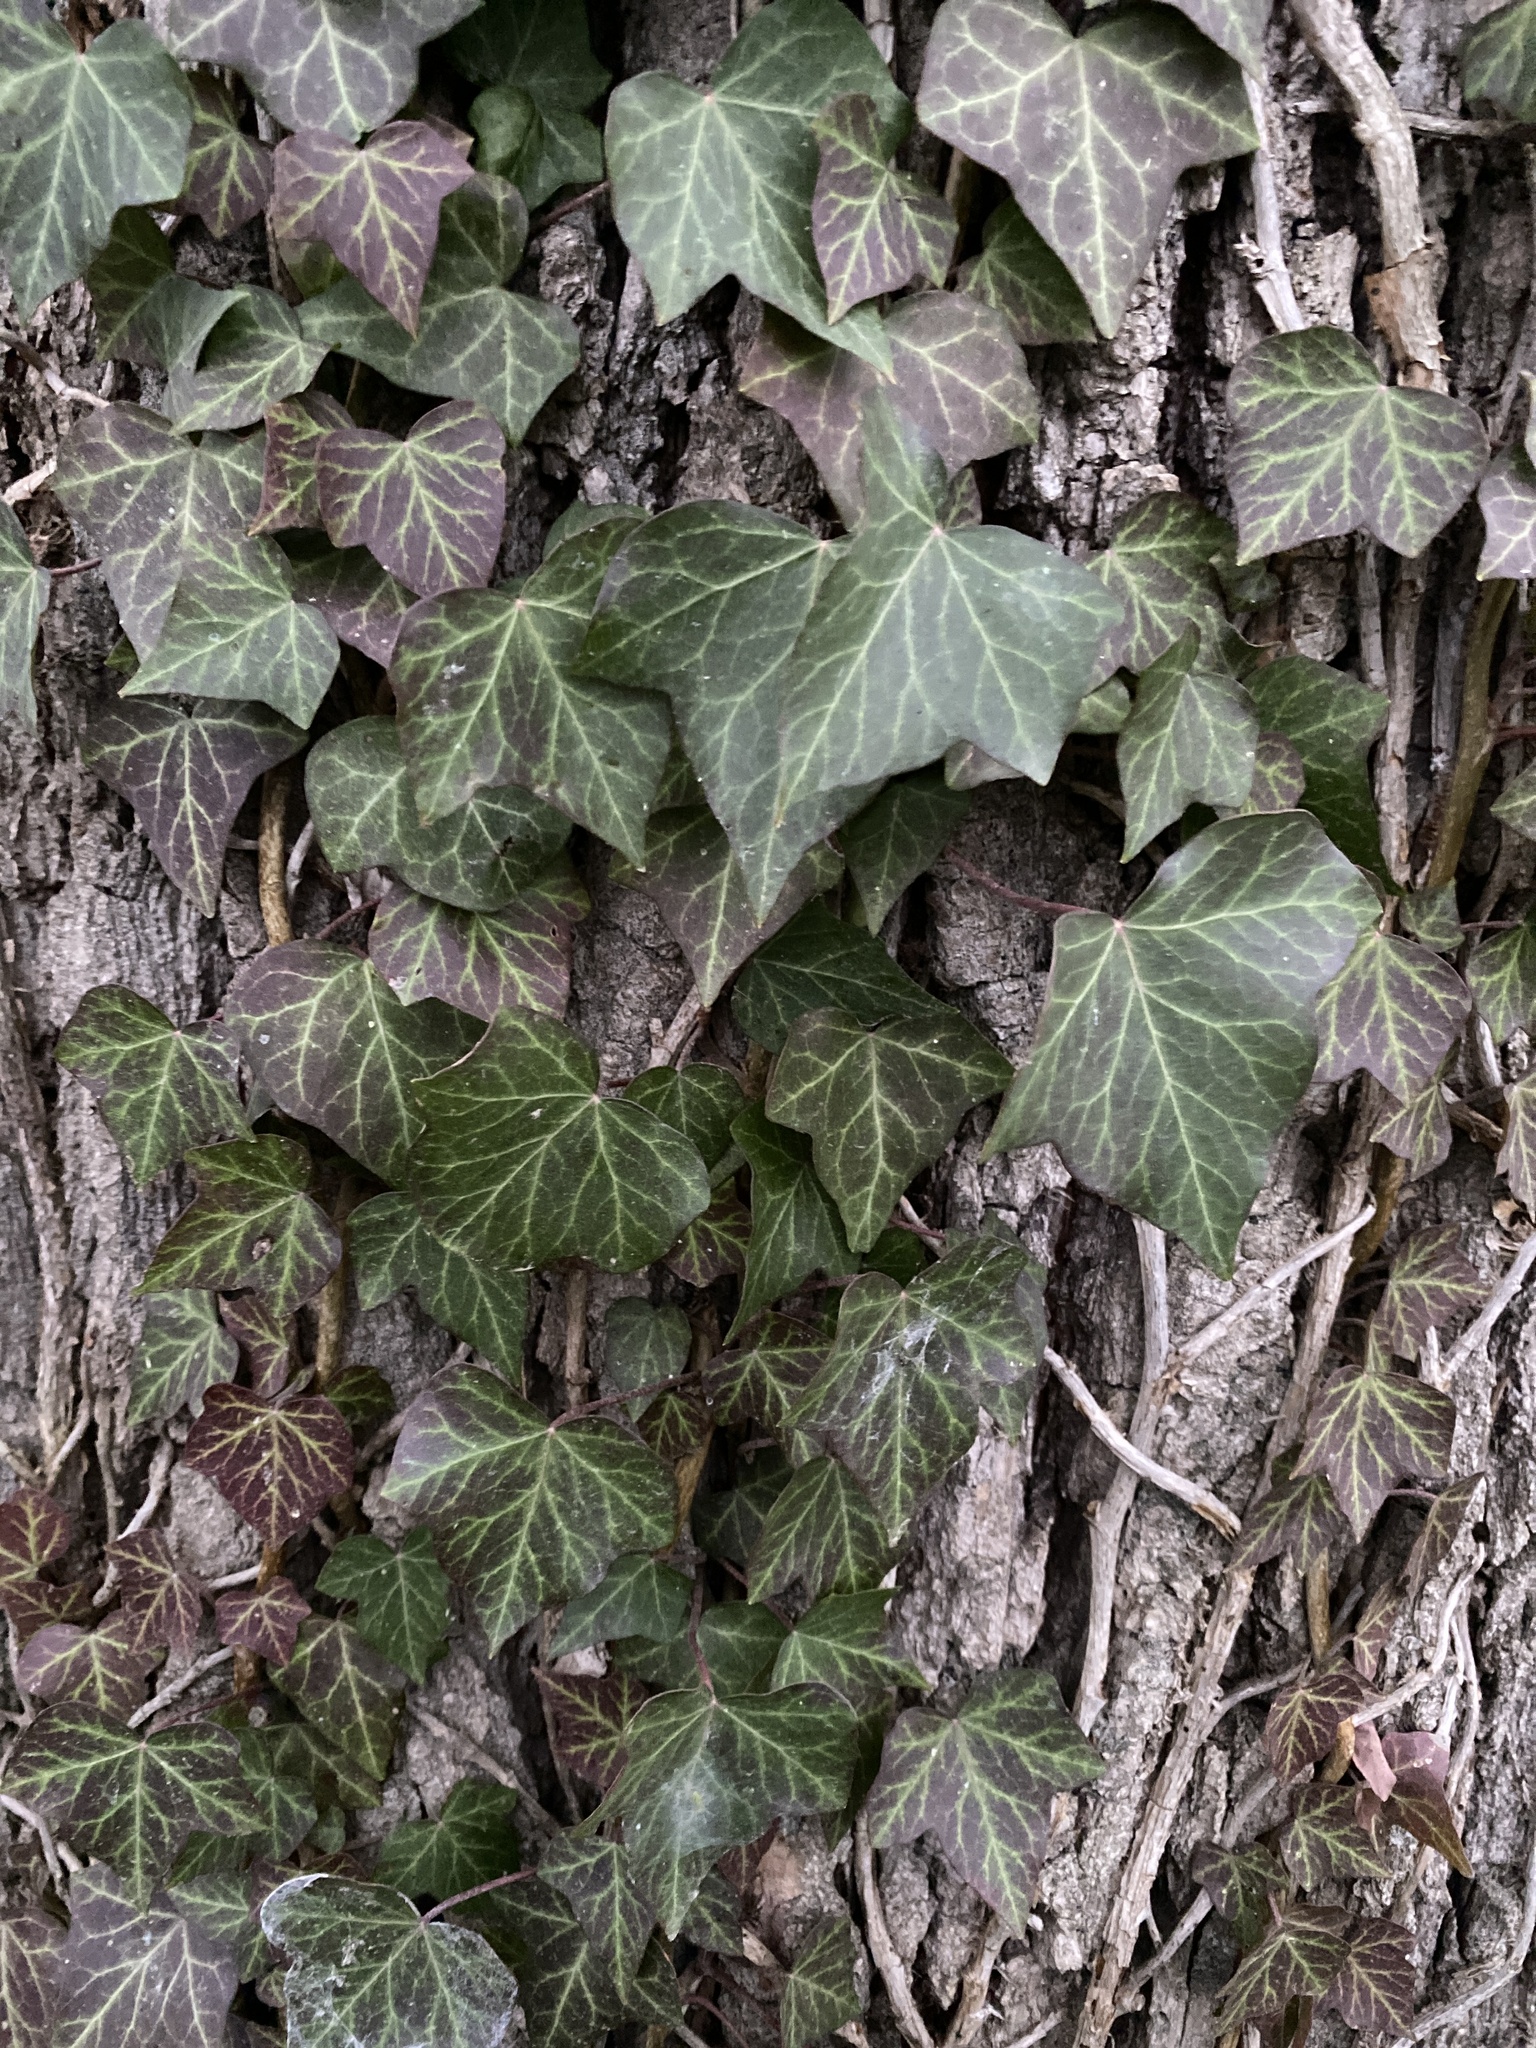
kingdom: Plantae
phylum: Tracheophyta
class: Magnoliopsida
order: Apiales
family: Araliaceae
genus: Hedera
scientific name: Hedera helix
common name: Ivy
